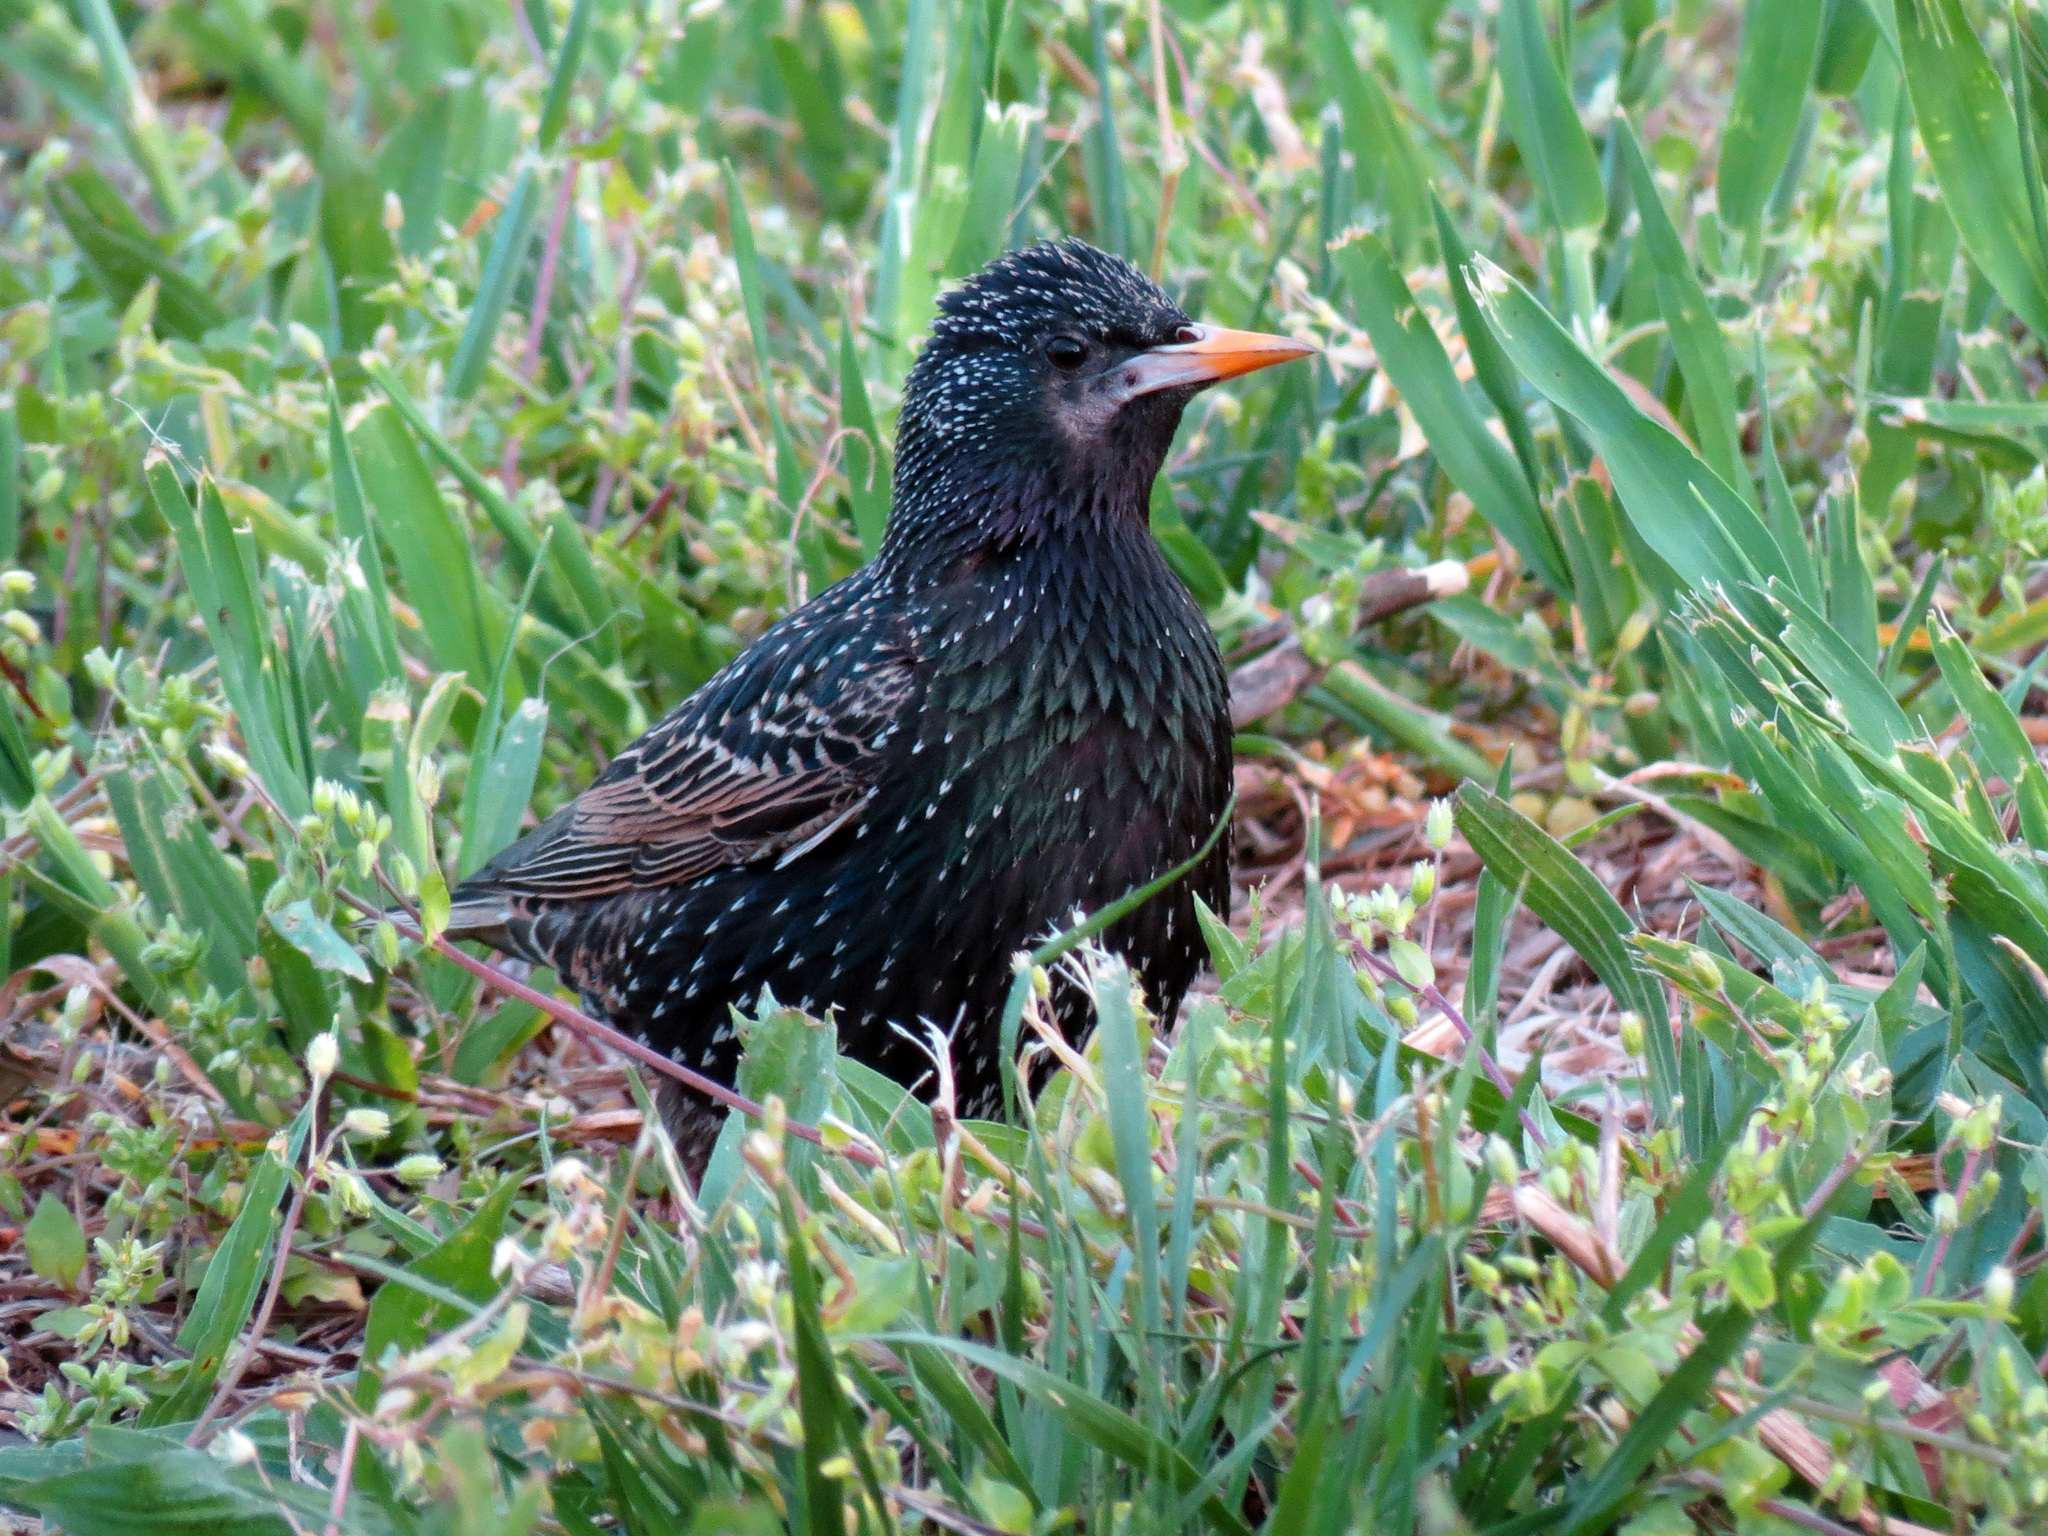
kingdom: Animalia
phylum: Chordata
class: Aves
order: Passeriformes
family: Sturnidae
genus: Sturnus
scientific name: Sturnus vulgaris
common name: Common starling
